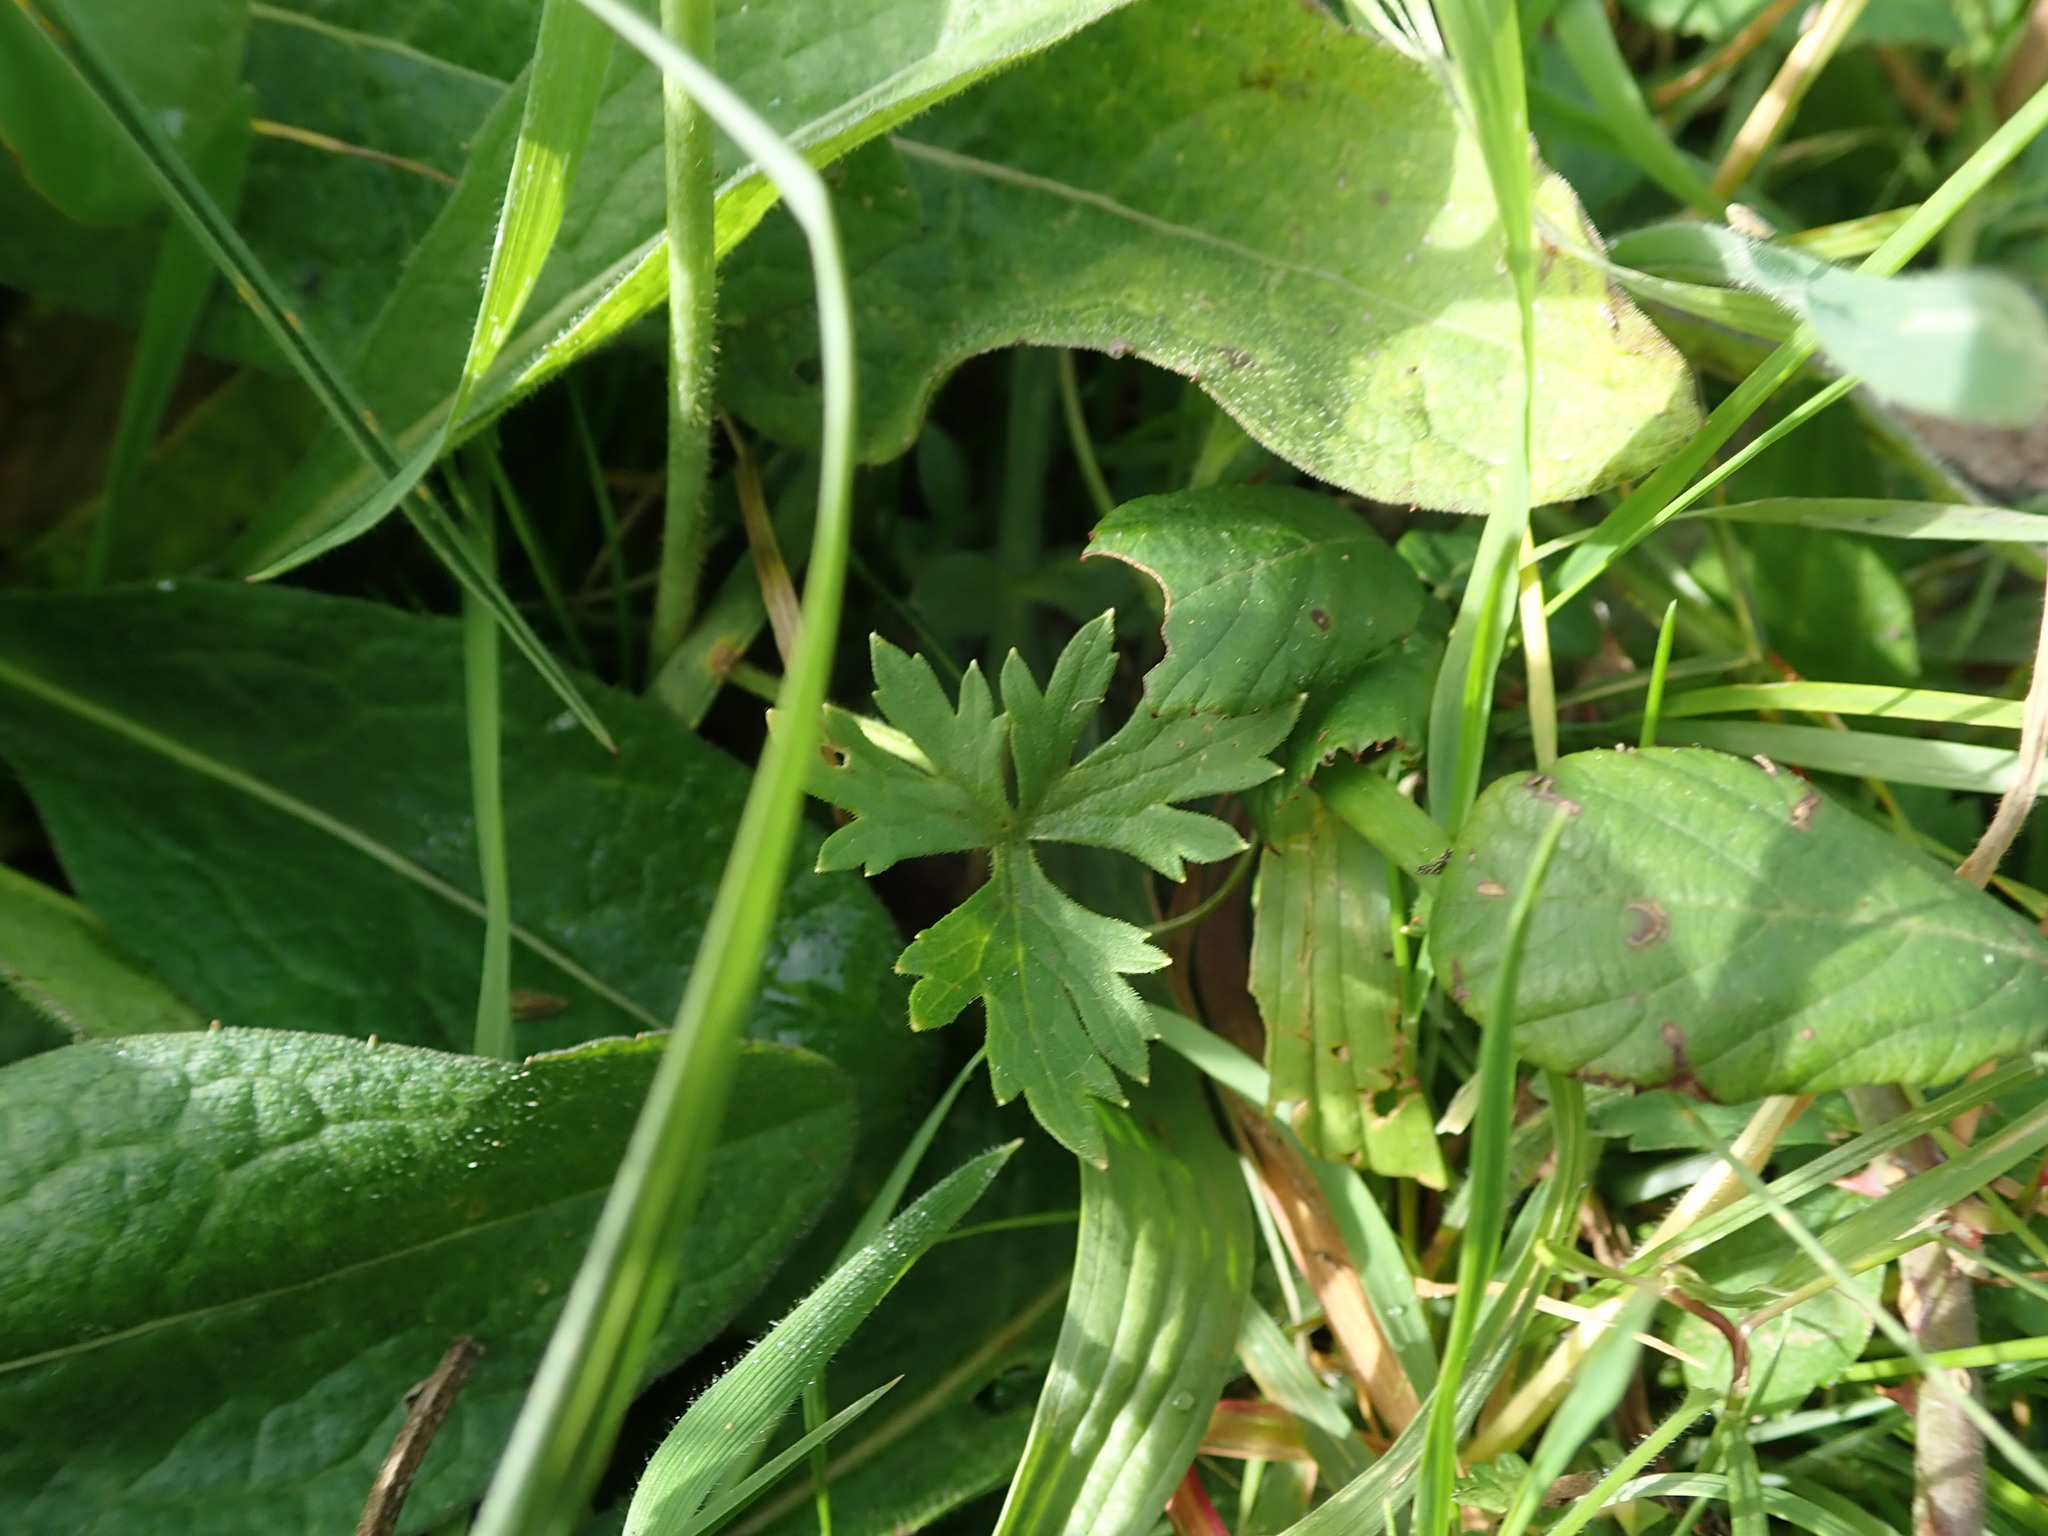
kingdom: Plantae
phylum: Tracheophyta
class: Magnoliopsida
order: Ranunculales
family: Ranunculaceae
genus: Ranunculus
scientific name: Ranunculus acris
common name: Meadow buttercup
